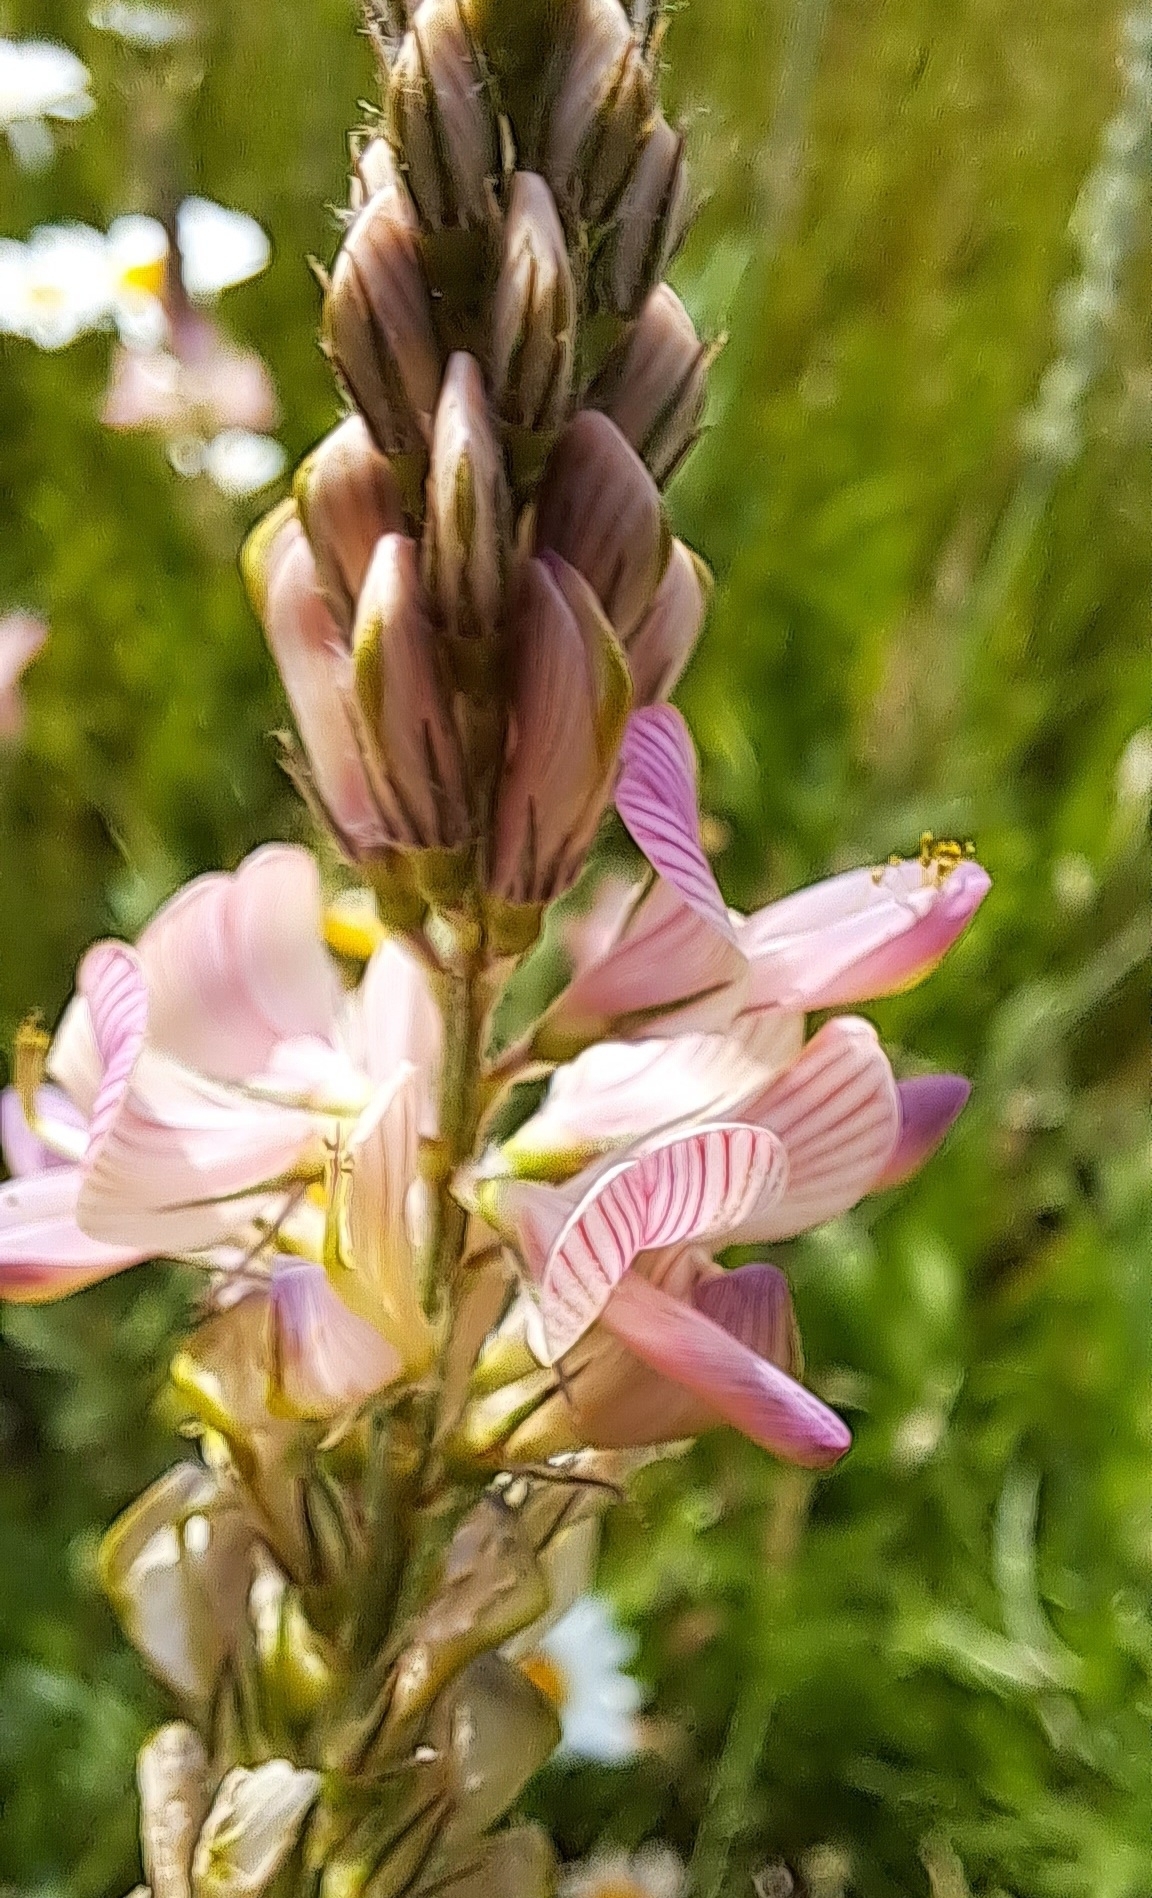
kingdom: Plantae
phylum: Tracheophyta
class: Magnoliopsida
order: Fabales
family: Fabaceae
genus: Onobrychis
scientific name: Onobrychis viciifolia
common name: Sainfoin
